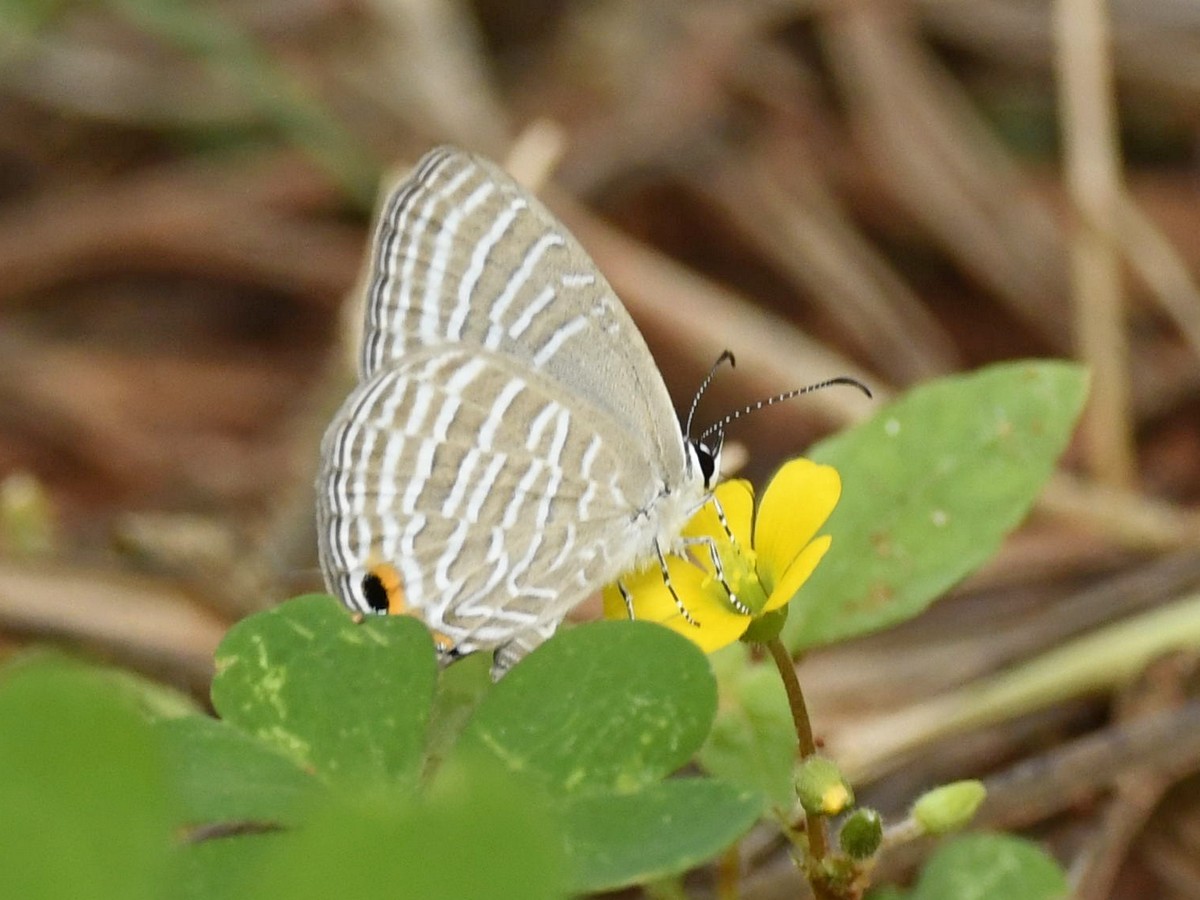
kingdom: Animalia
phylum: Arthropoda
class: Insecta
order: Lepidoptera
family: Lycaenidae
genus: Jamides
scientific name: Jamides celeno
